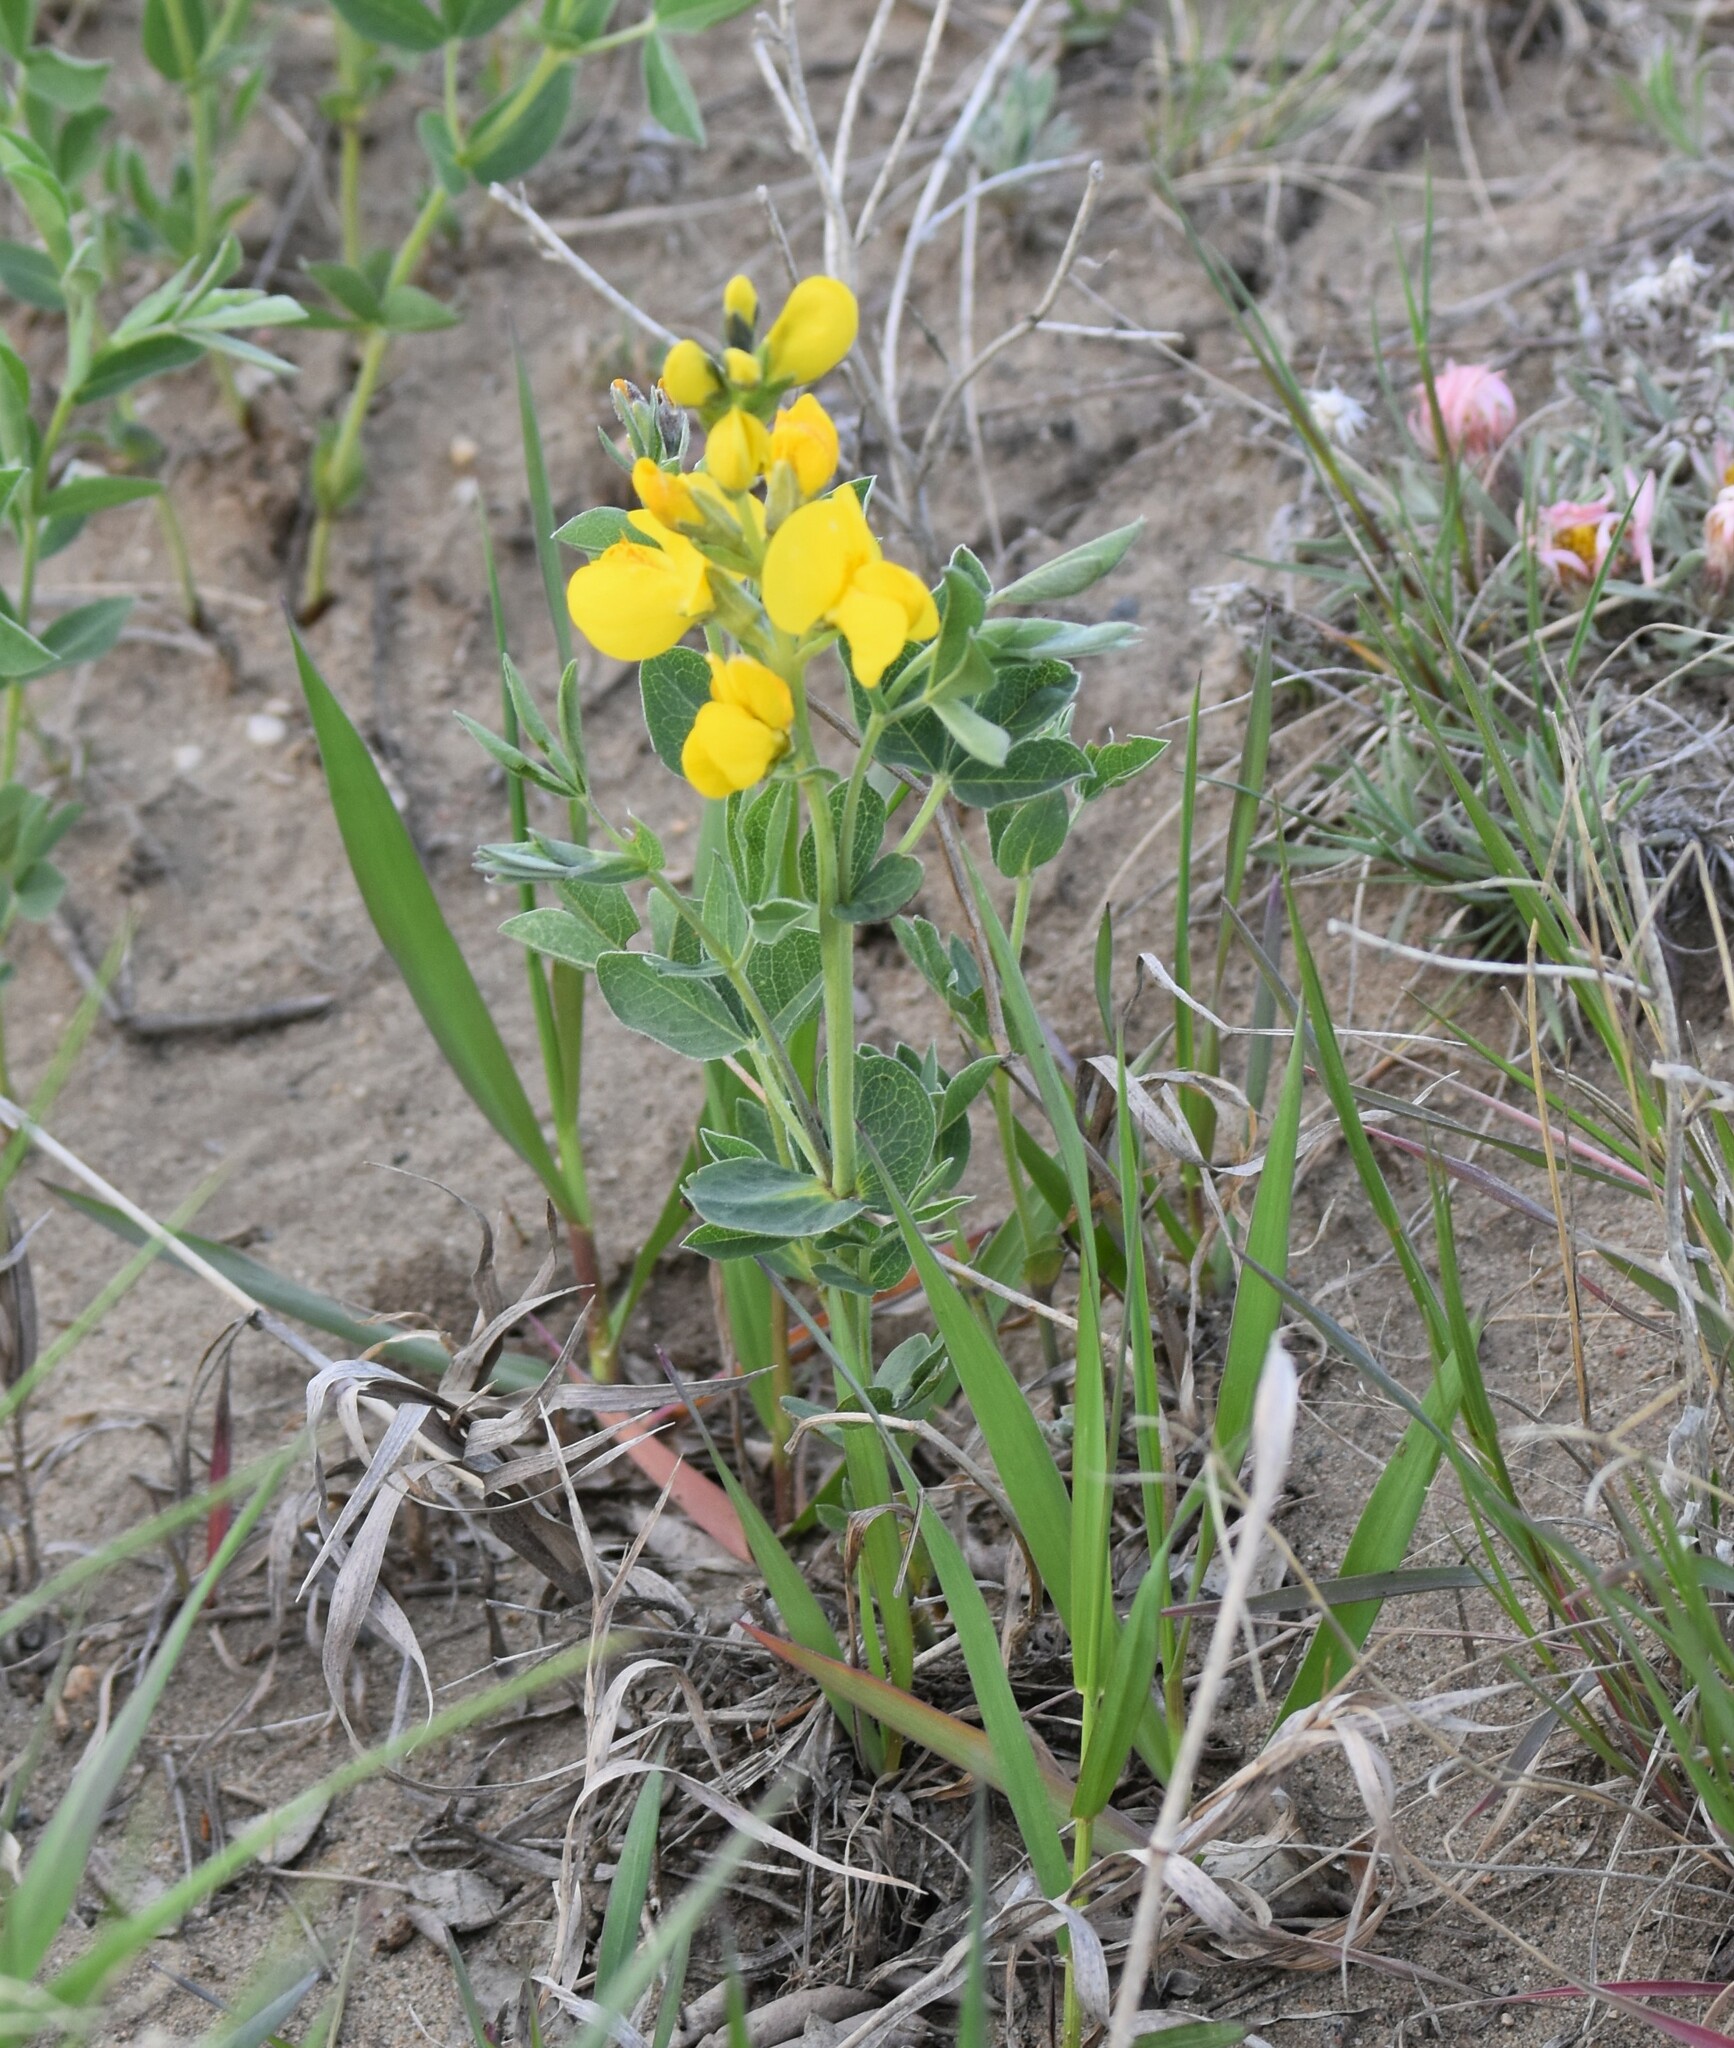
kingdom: Plantae
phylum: Tracheophyta
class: Magnoliopsida
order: Fabales
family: Fabaceae
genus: Thermopsis
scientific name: Thermopsis rhombifolia
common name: Circle-pod-pea
